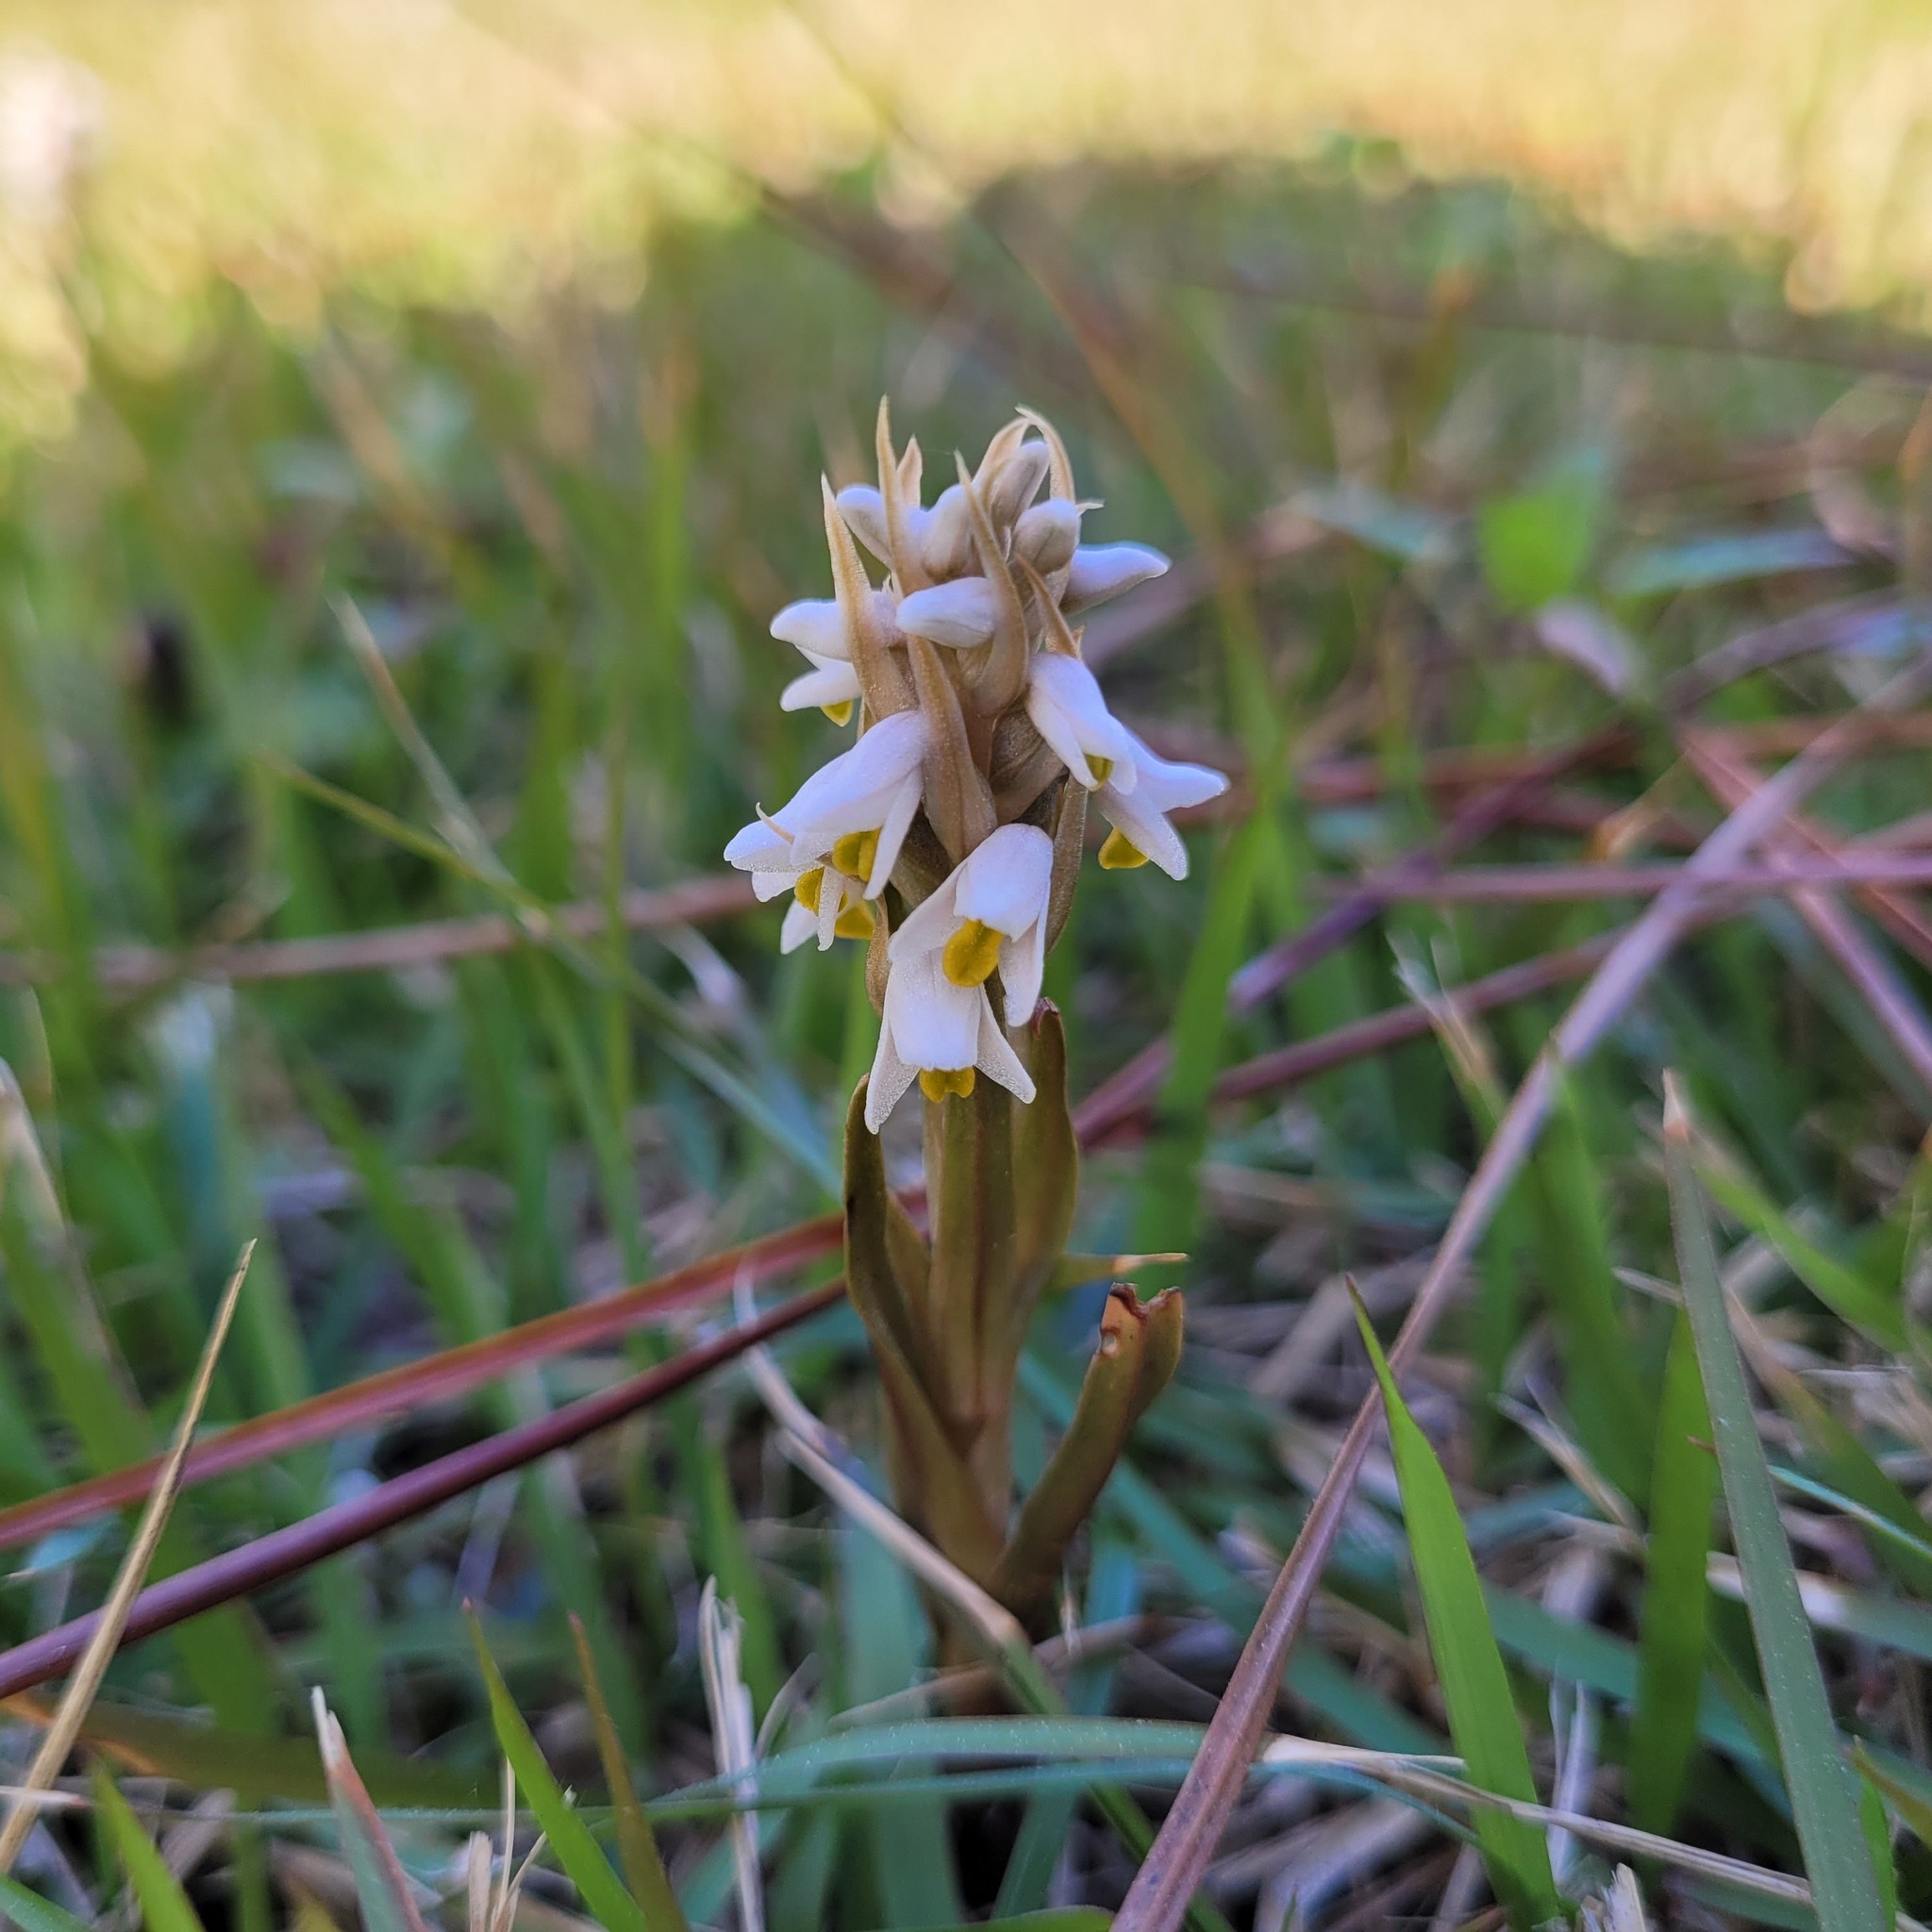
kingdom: Plantae
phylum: Tracheophyta
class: Liliopsida
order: Asparagales
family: Orchidaceae
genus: Zeuxine
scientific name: Zeuxine strateumatica
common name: Soldier's orchid
